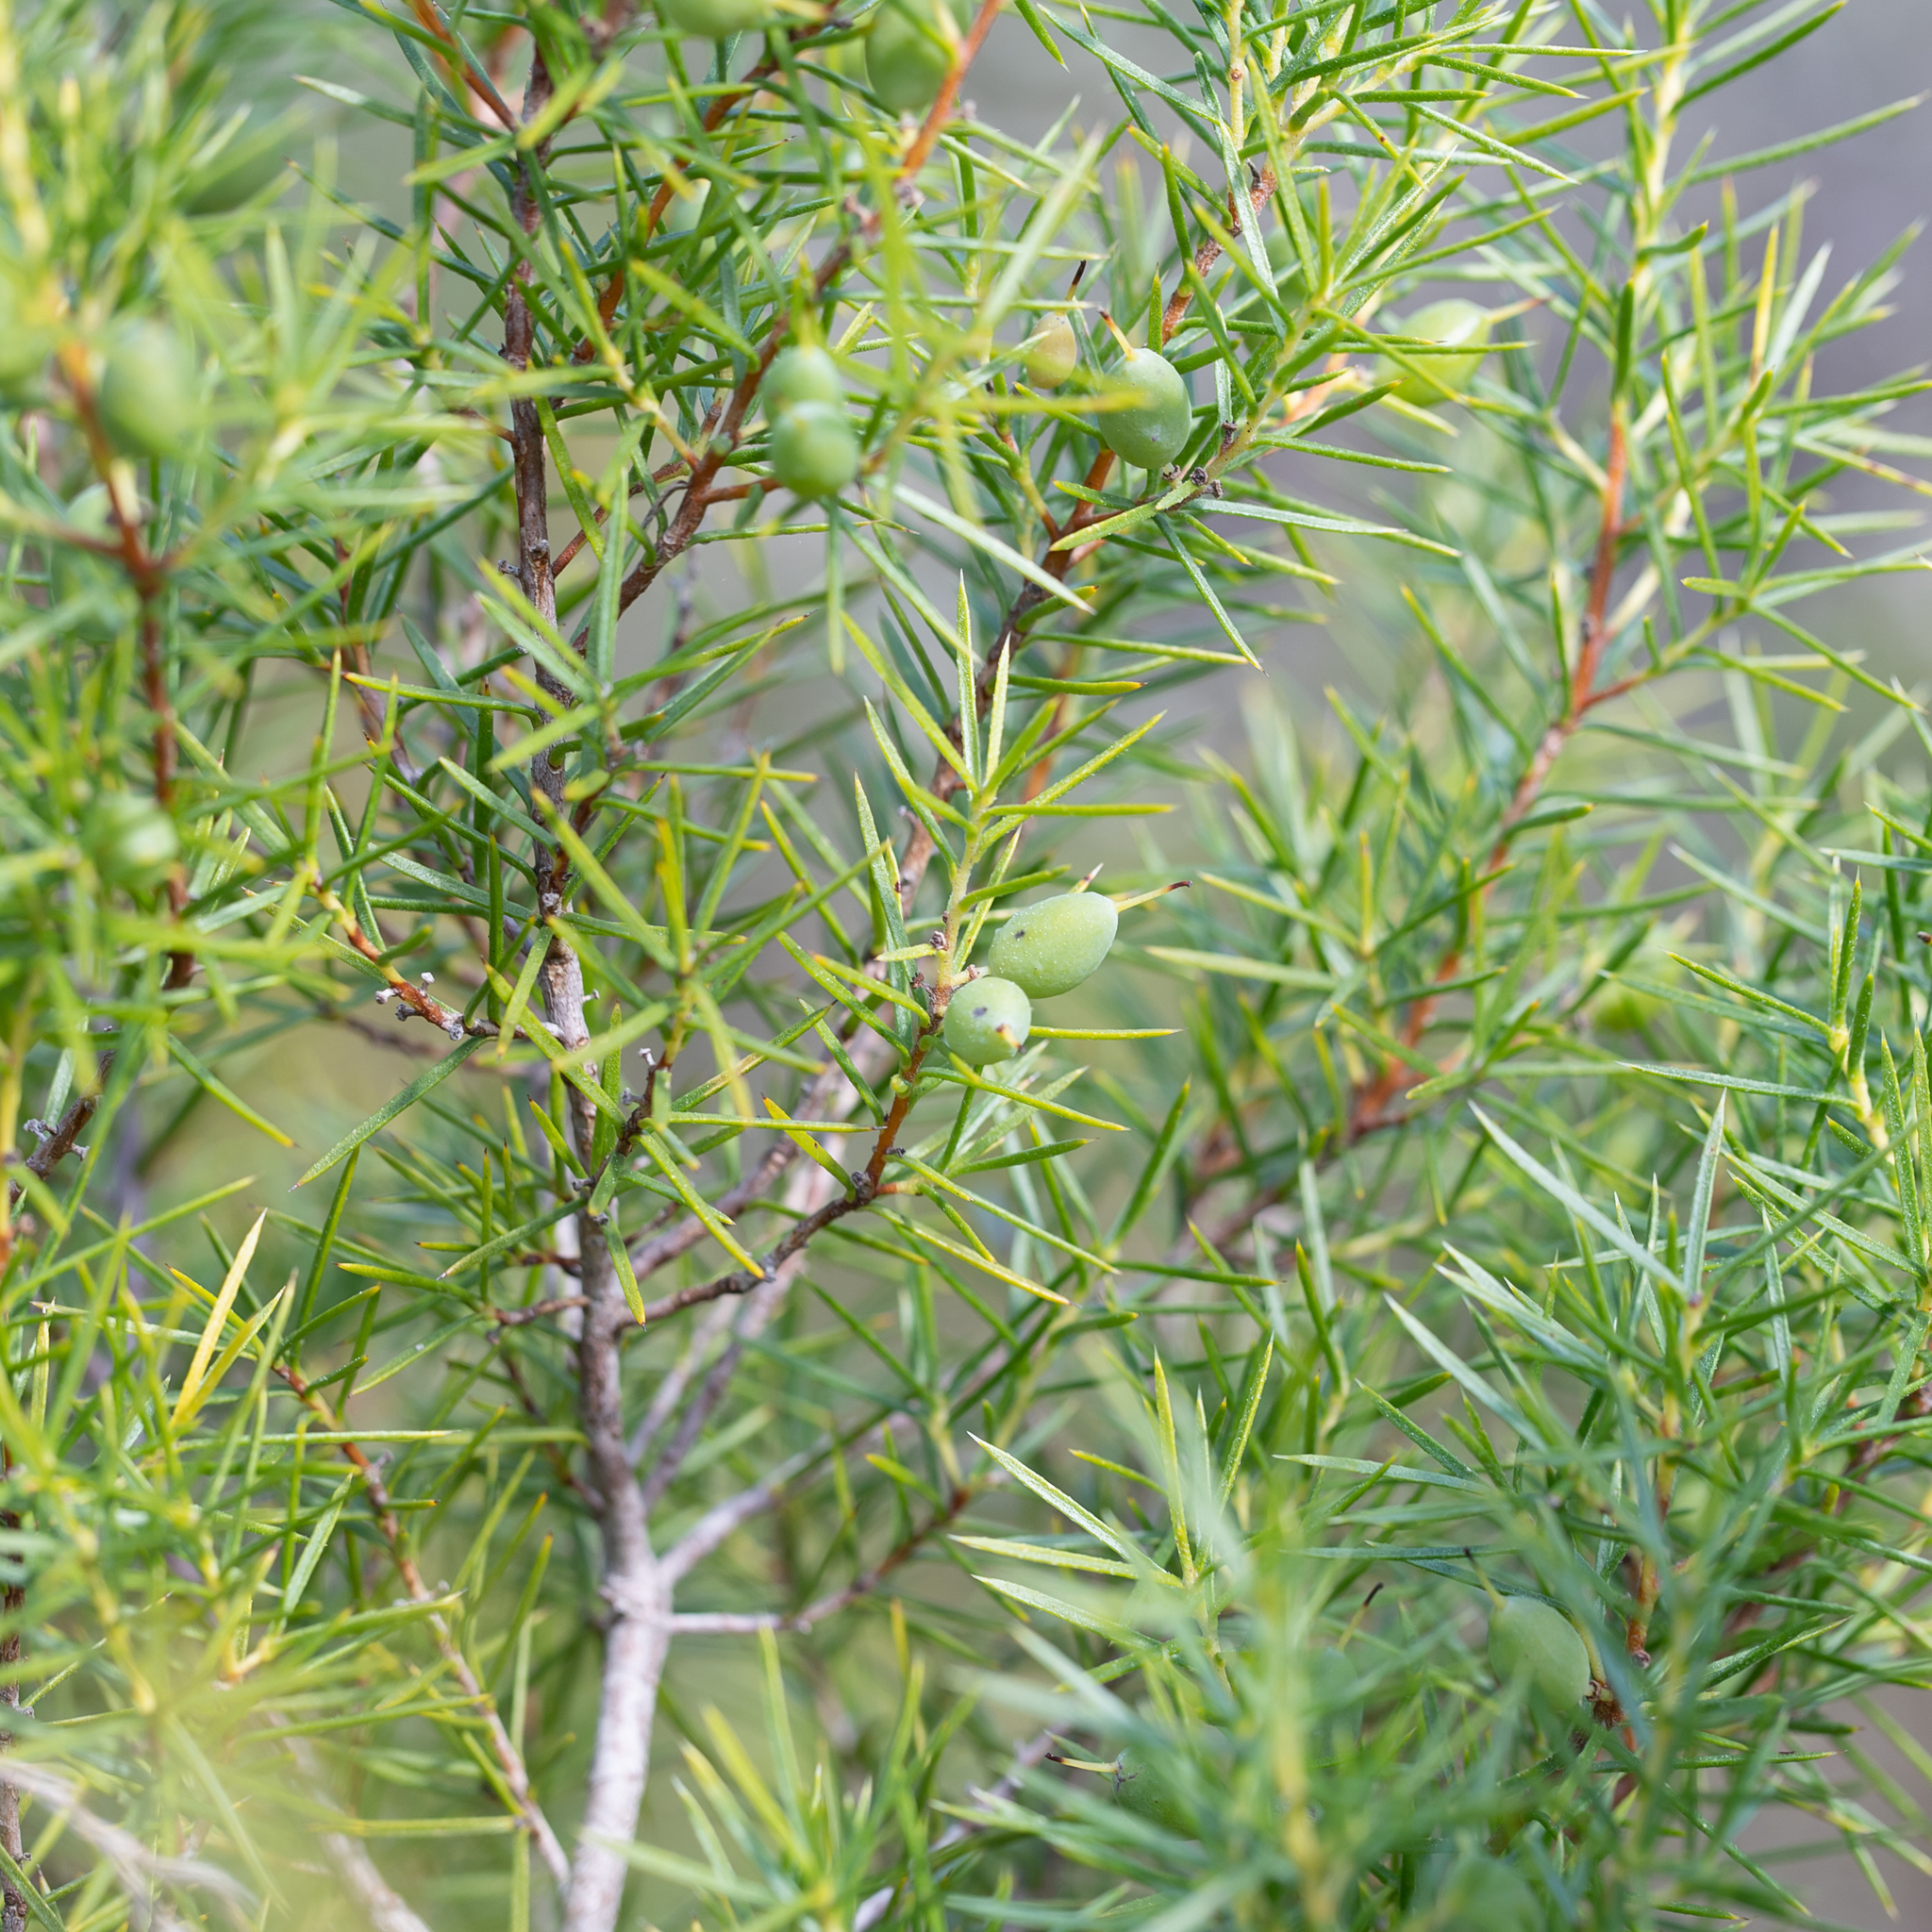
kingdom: Plantae
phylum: Tracheophyta
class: Magnoliopsida
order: Proteales
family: Proteaceae
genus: Persoonia
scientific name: Persoonia juniperina
